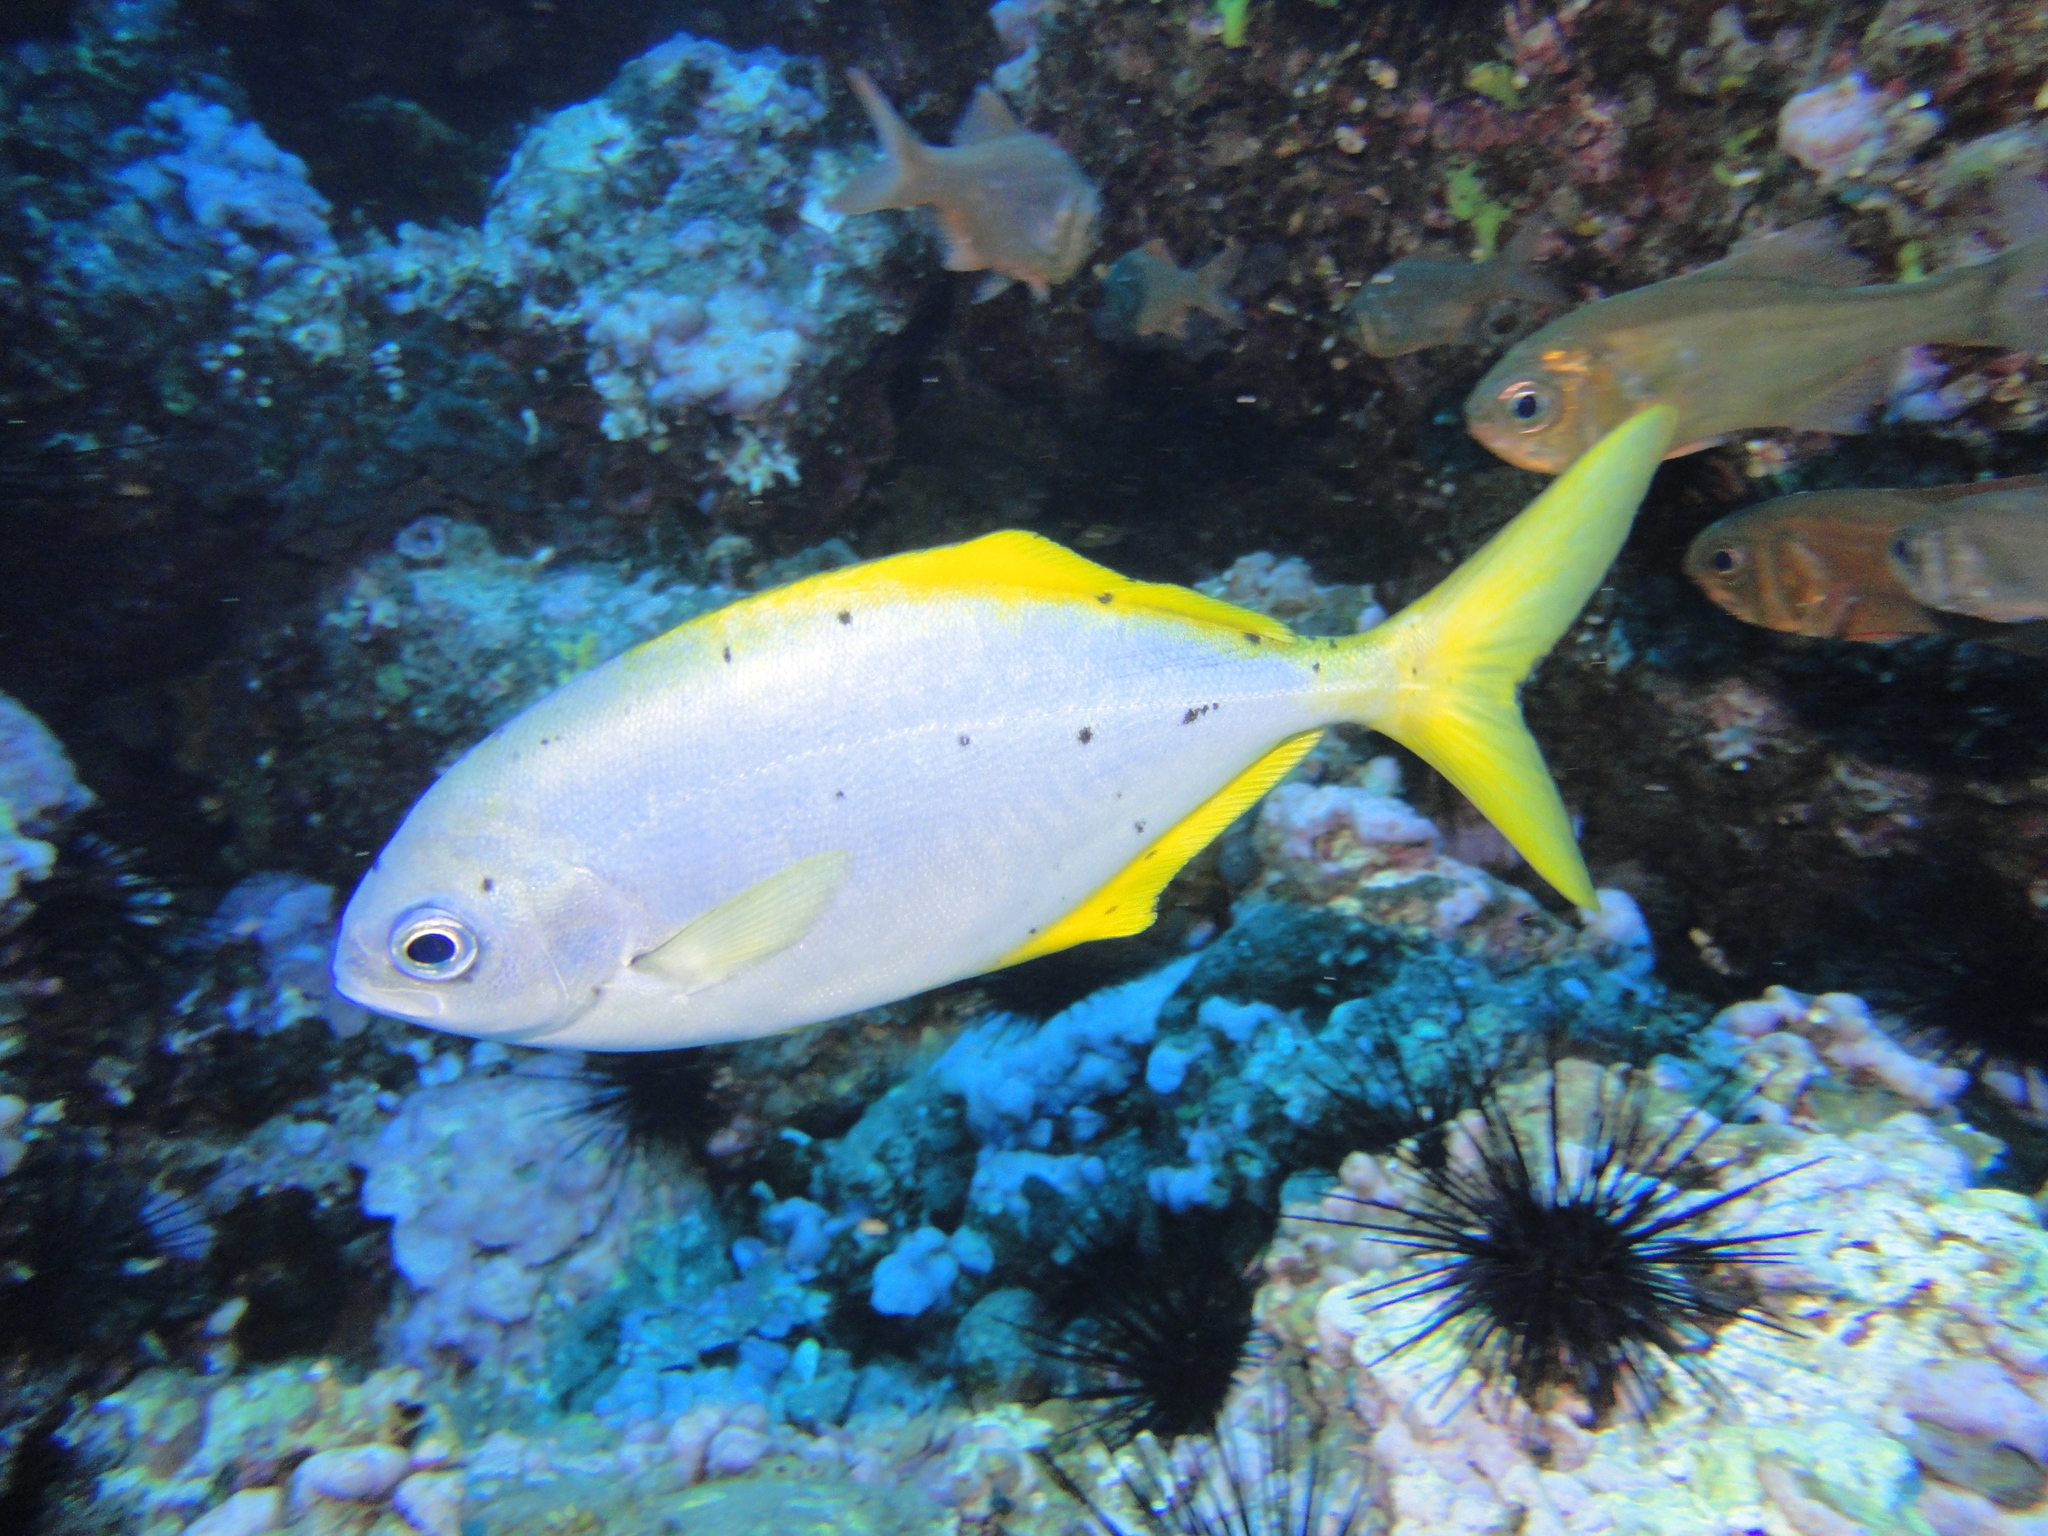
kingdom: Animalia
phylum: Chordata
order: Perciformes
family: Kyphosidae
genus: Scorpis
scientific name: Scorpis chilensis
